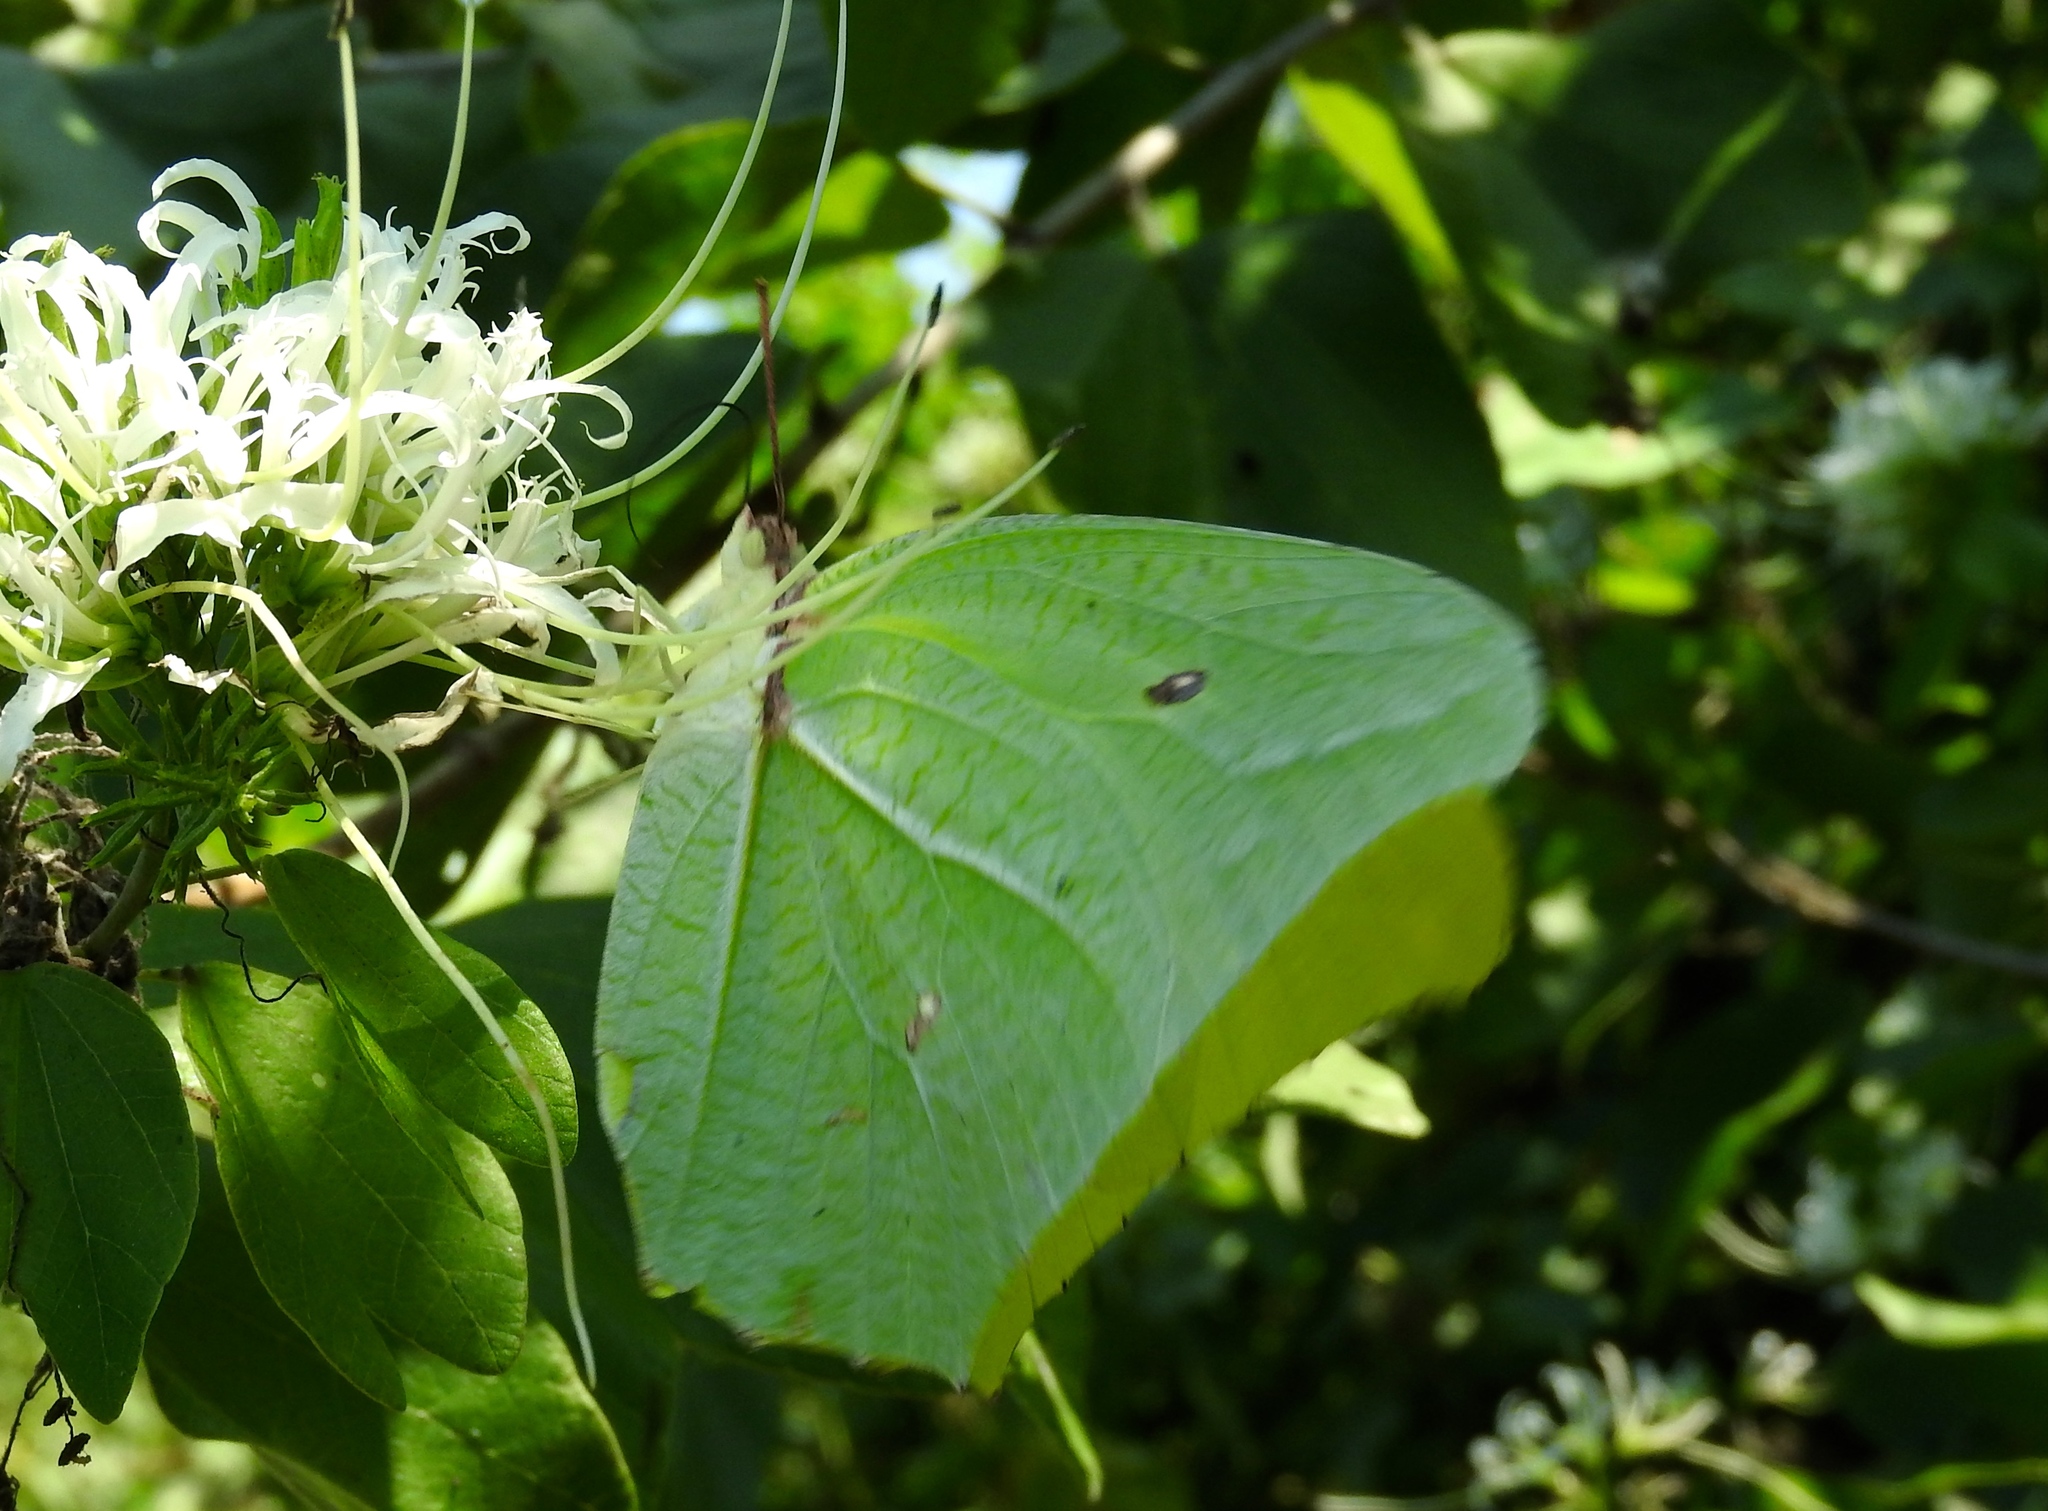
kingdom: Animalia
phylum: Arthropoda
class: Insecta
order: Lepidoptera
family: Pieridae
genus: Anteos
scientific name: Anteos maerula
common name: Angled sulphur
